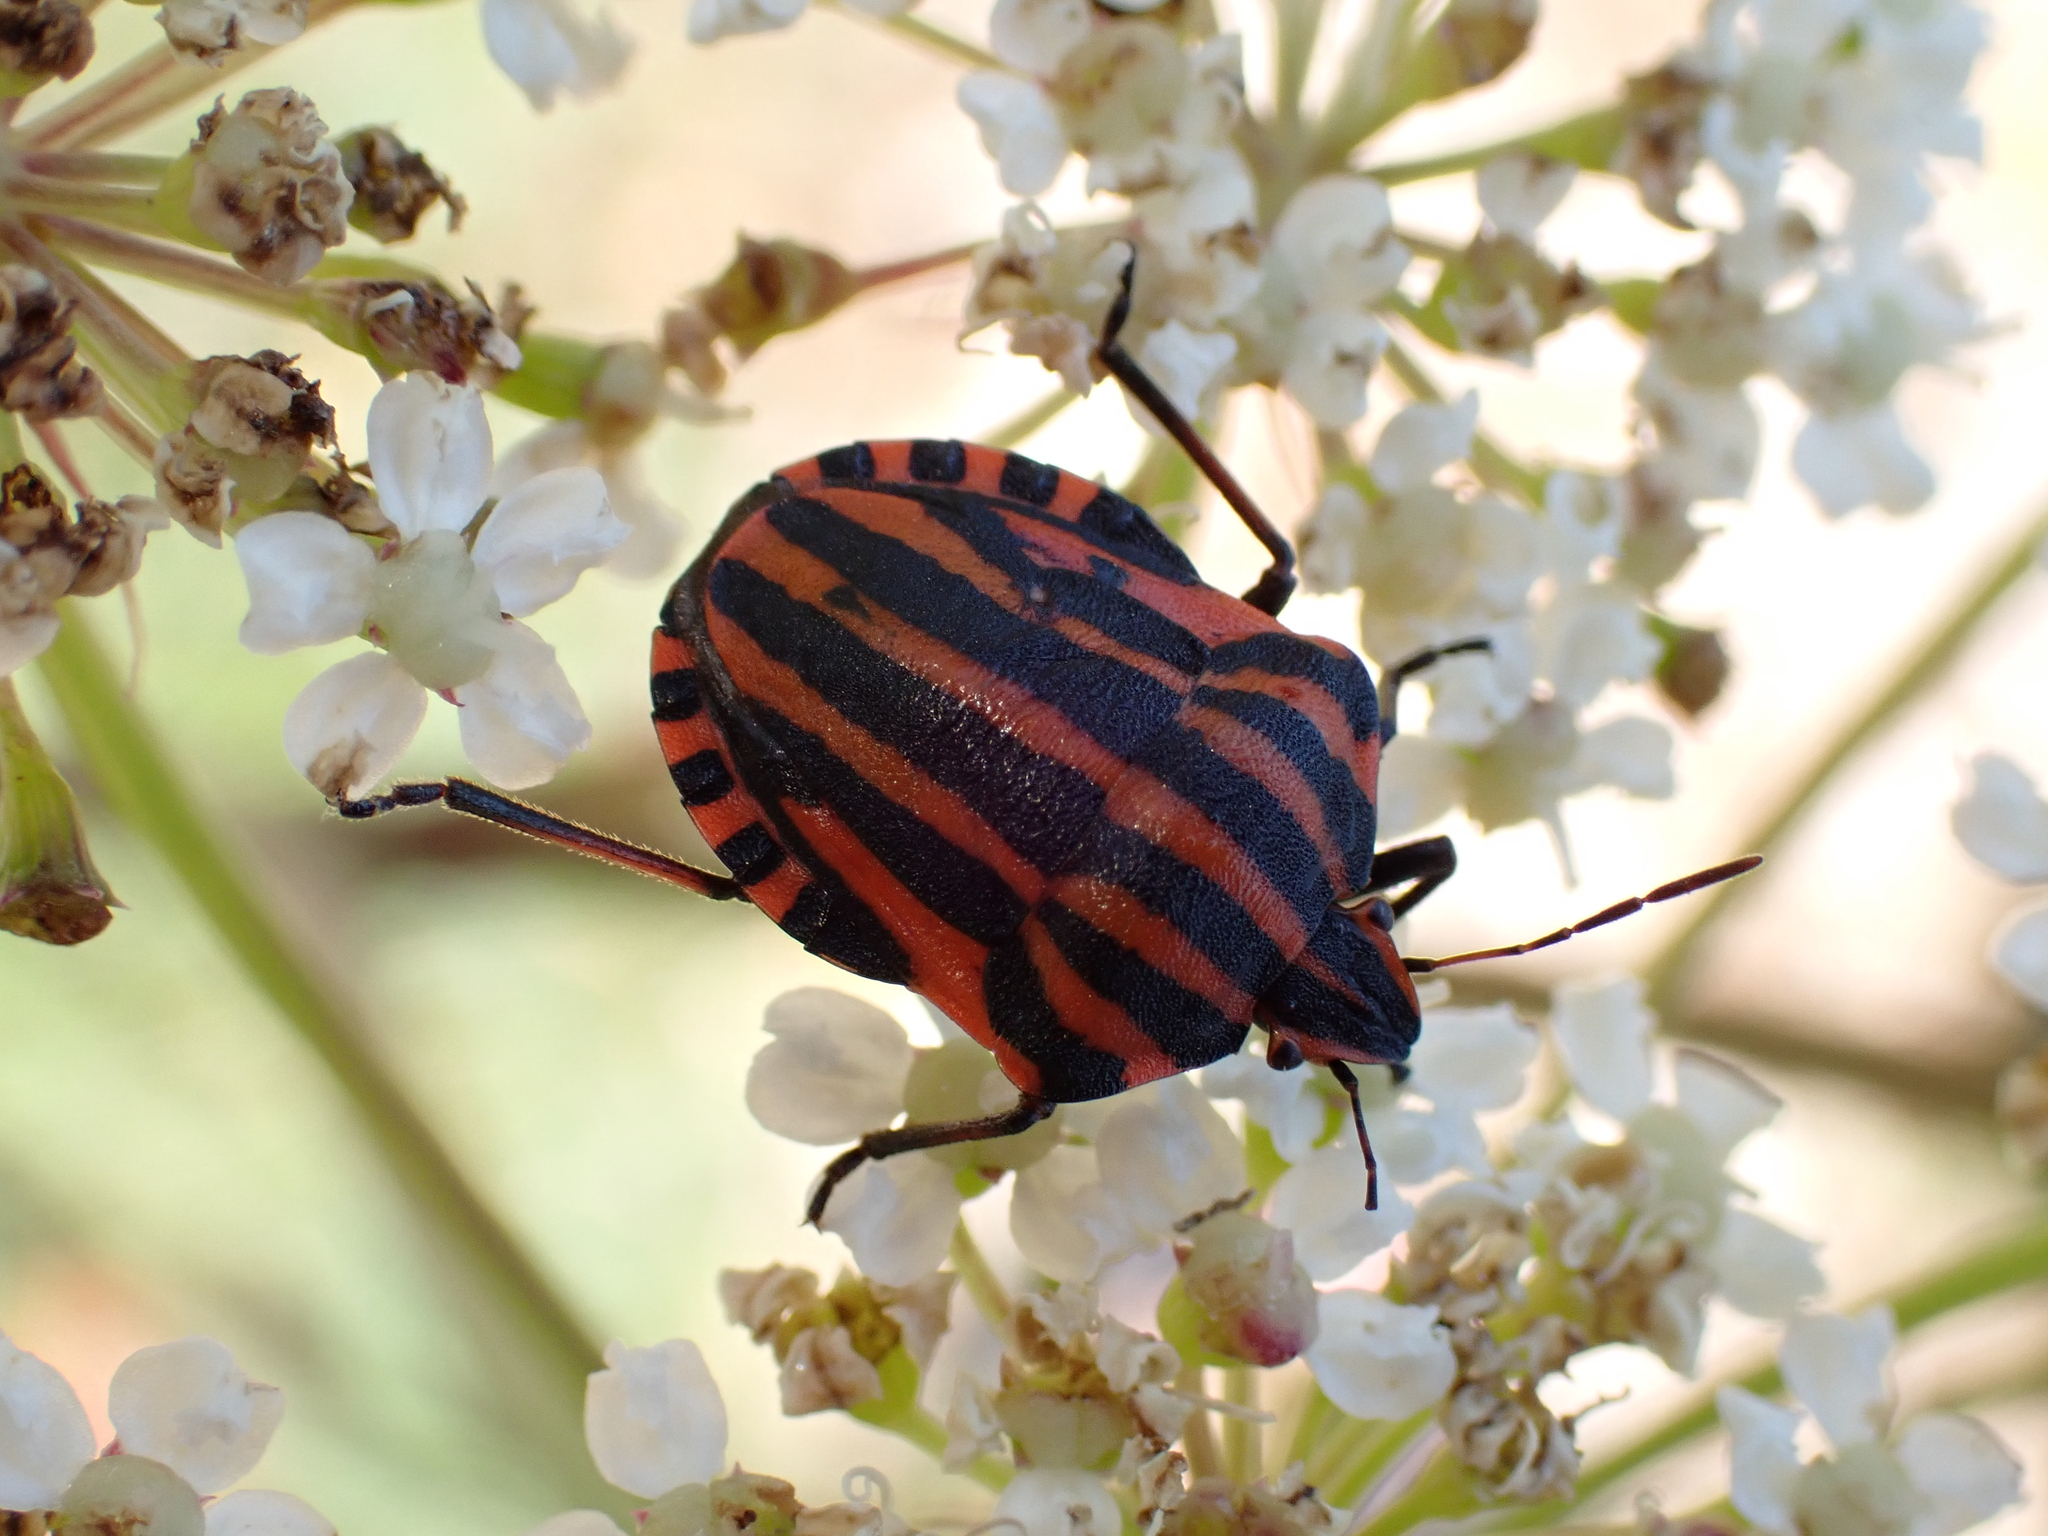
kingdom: Animalia
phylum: Arthropoda
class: Insecta
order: Hemiptera
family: Pentatomidae
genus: Graphosoma
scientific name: Graphosoma italicum
